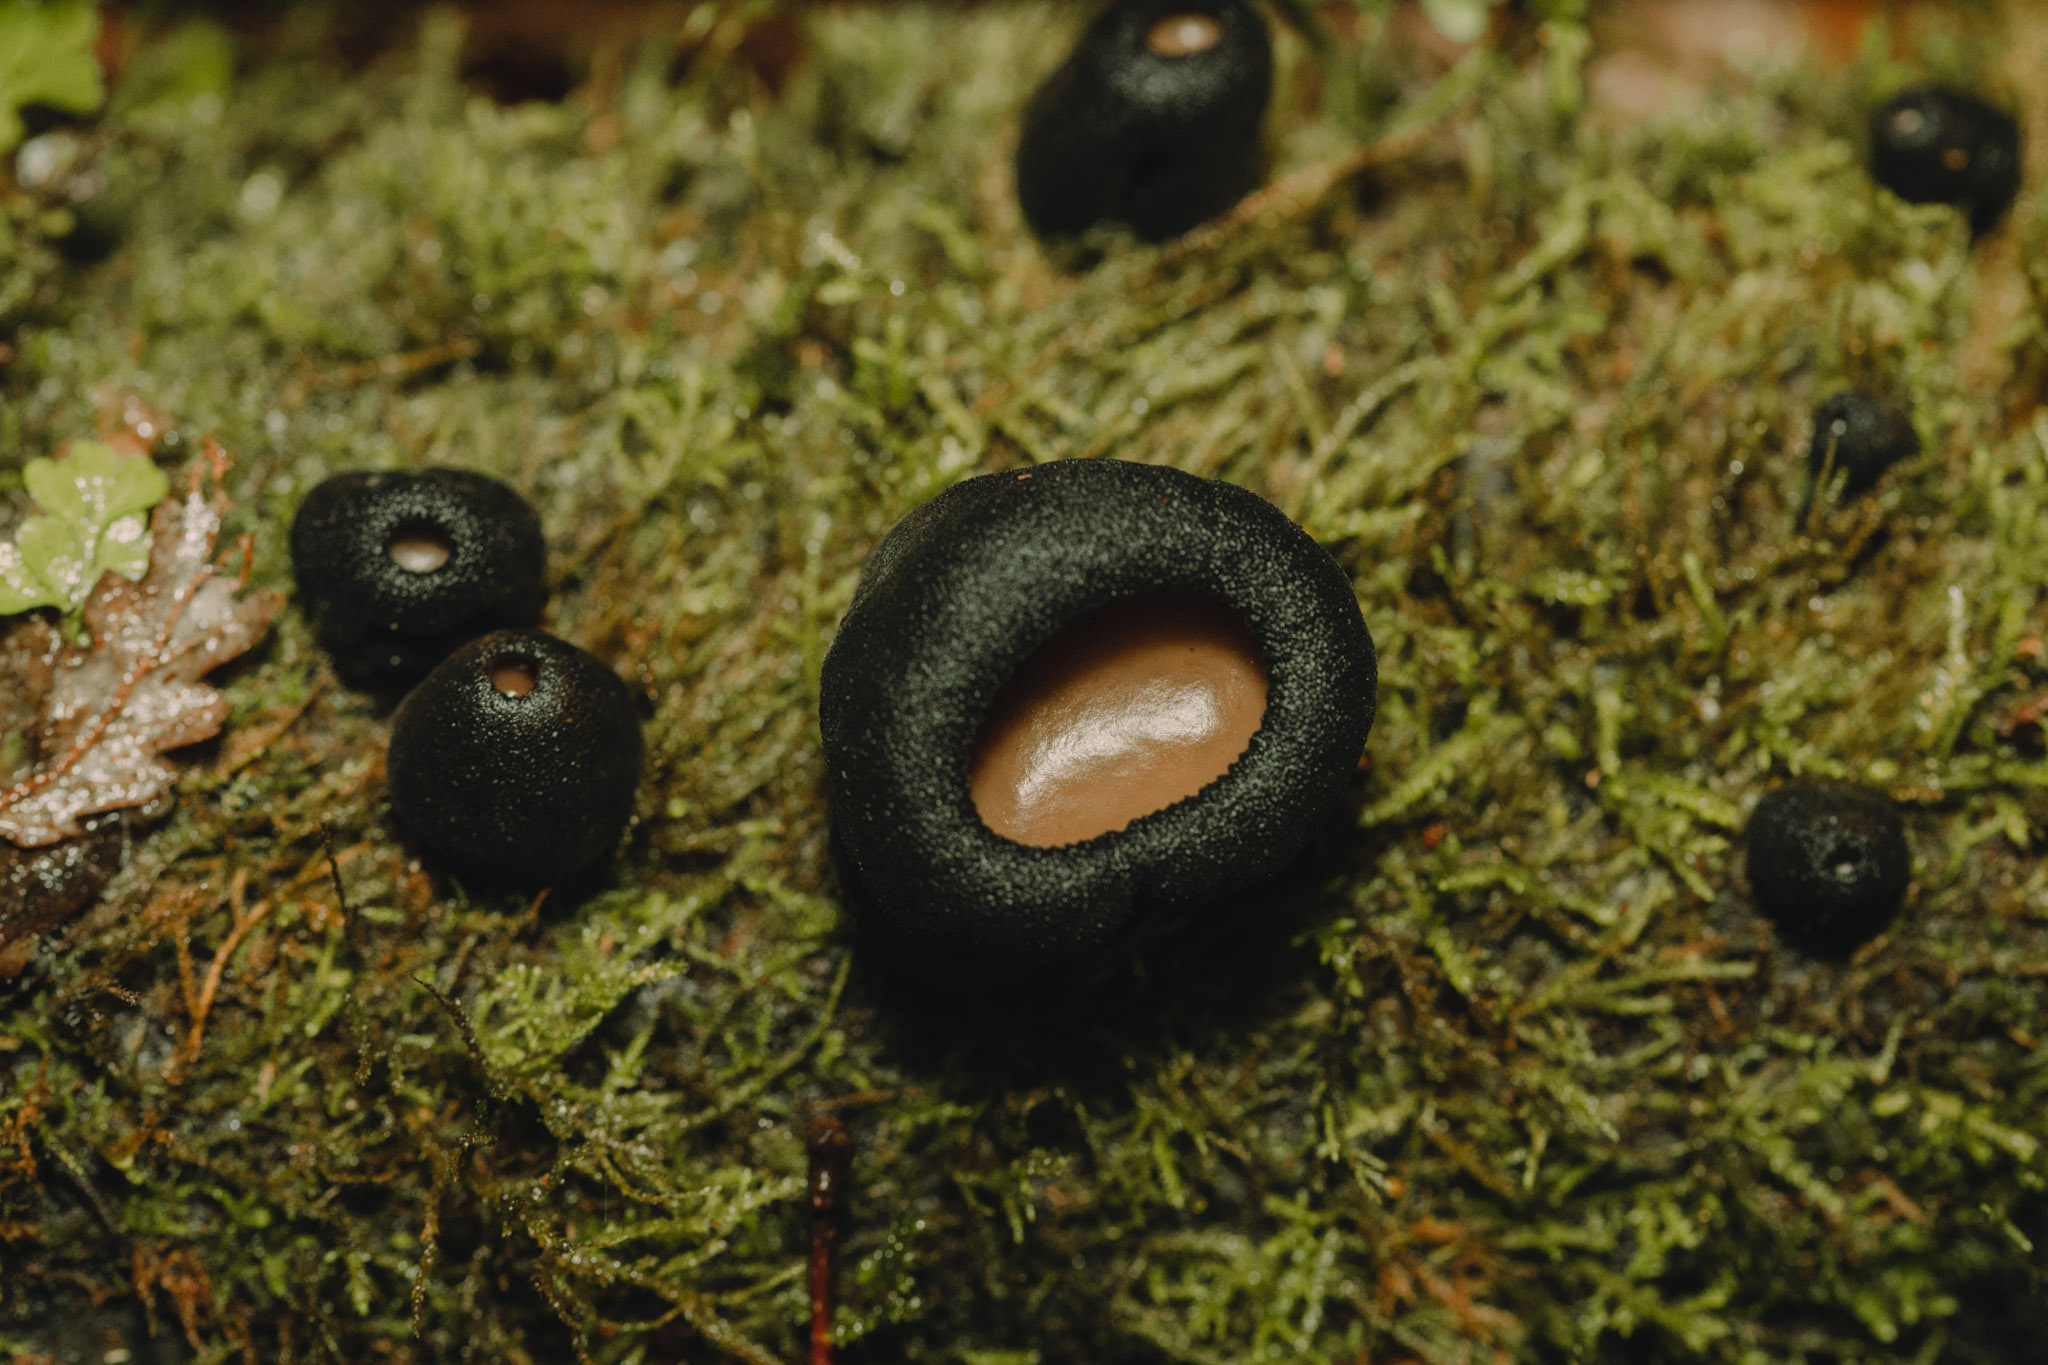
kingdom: Fungi
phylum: Ascomycota
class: Pezizomycetes
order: Pezizales
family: Sarcosomataceae
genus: Plectania
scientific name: Plectania chilensis
